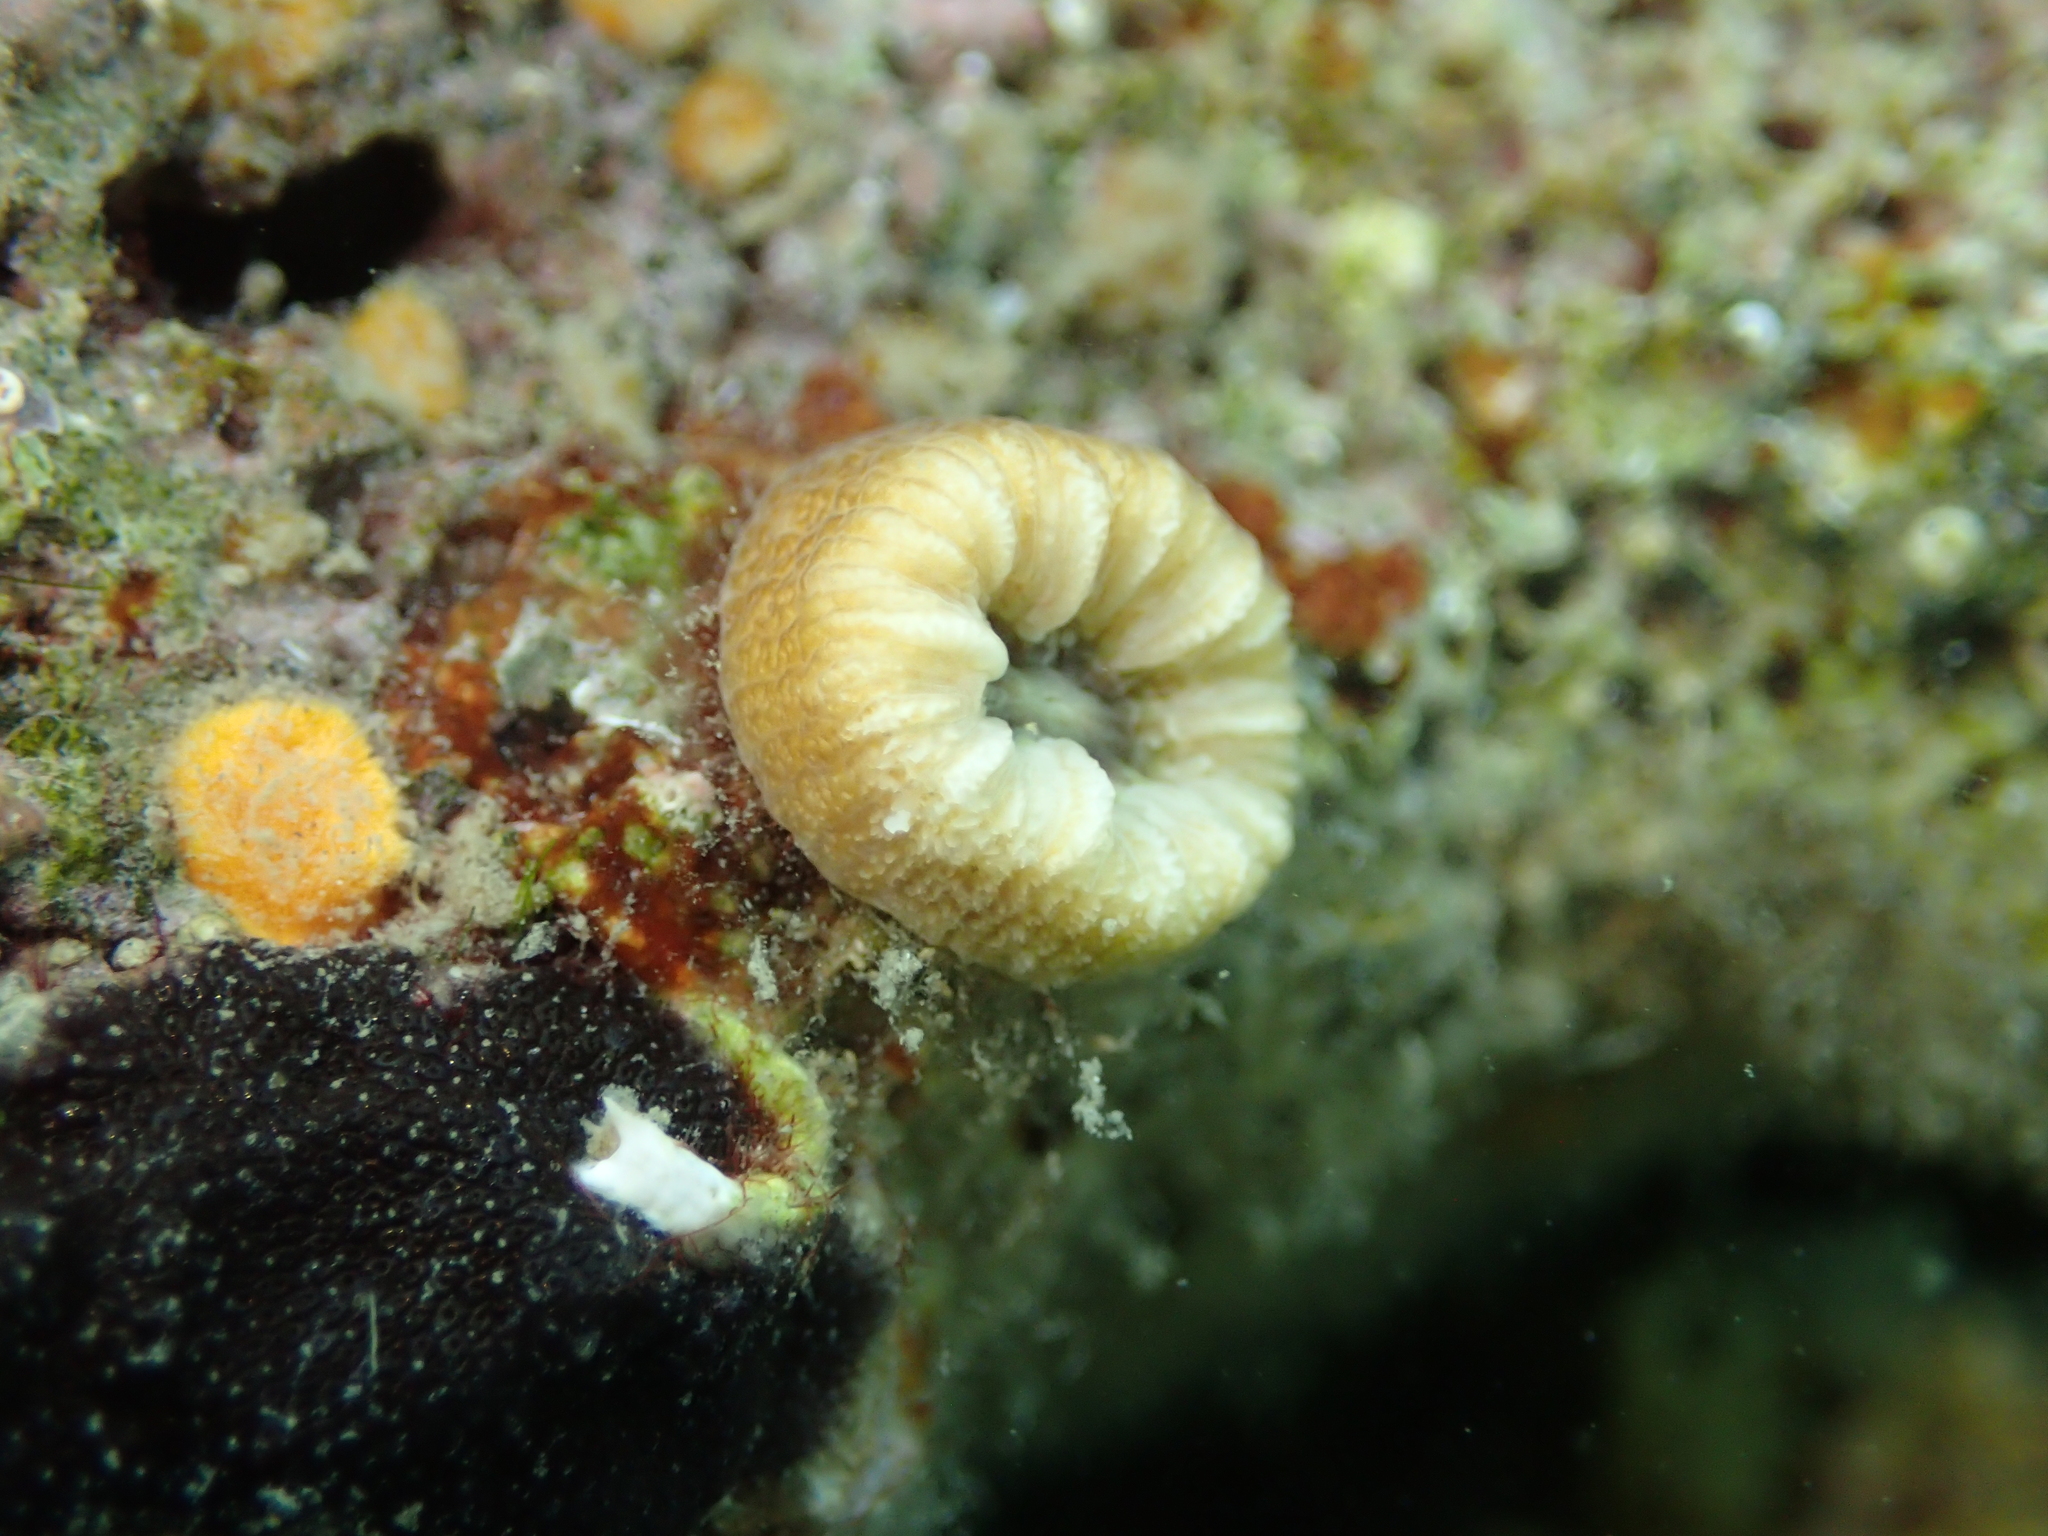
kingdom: Animalia
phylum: Cnidaria
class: Anthozoa
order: Scleractinia
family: Dendrophylliidae
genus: Balanophyllia
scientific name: Balanophyllia europaea
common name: Scarlet coral
